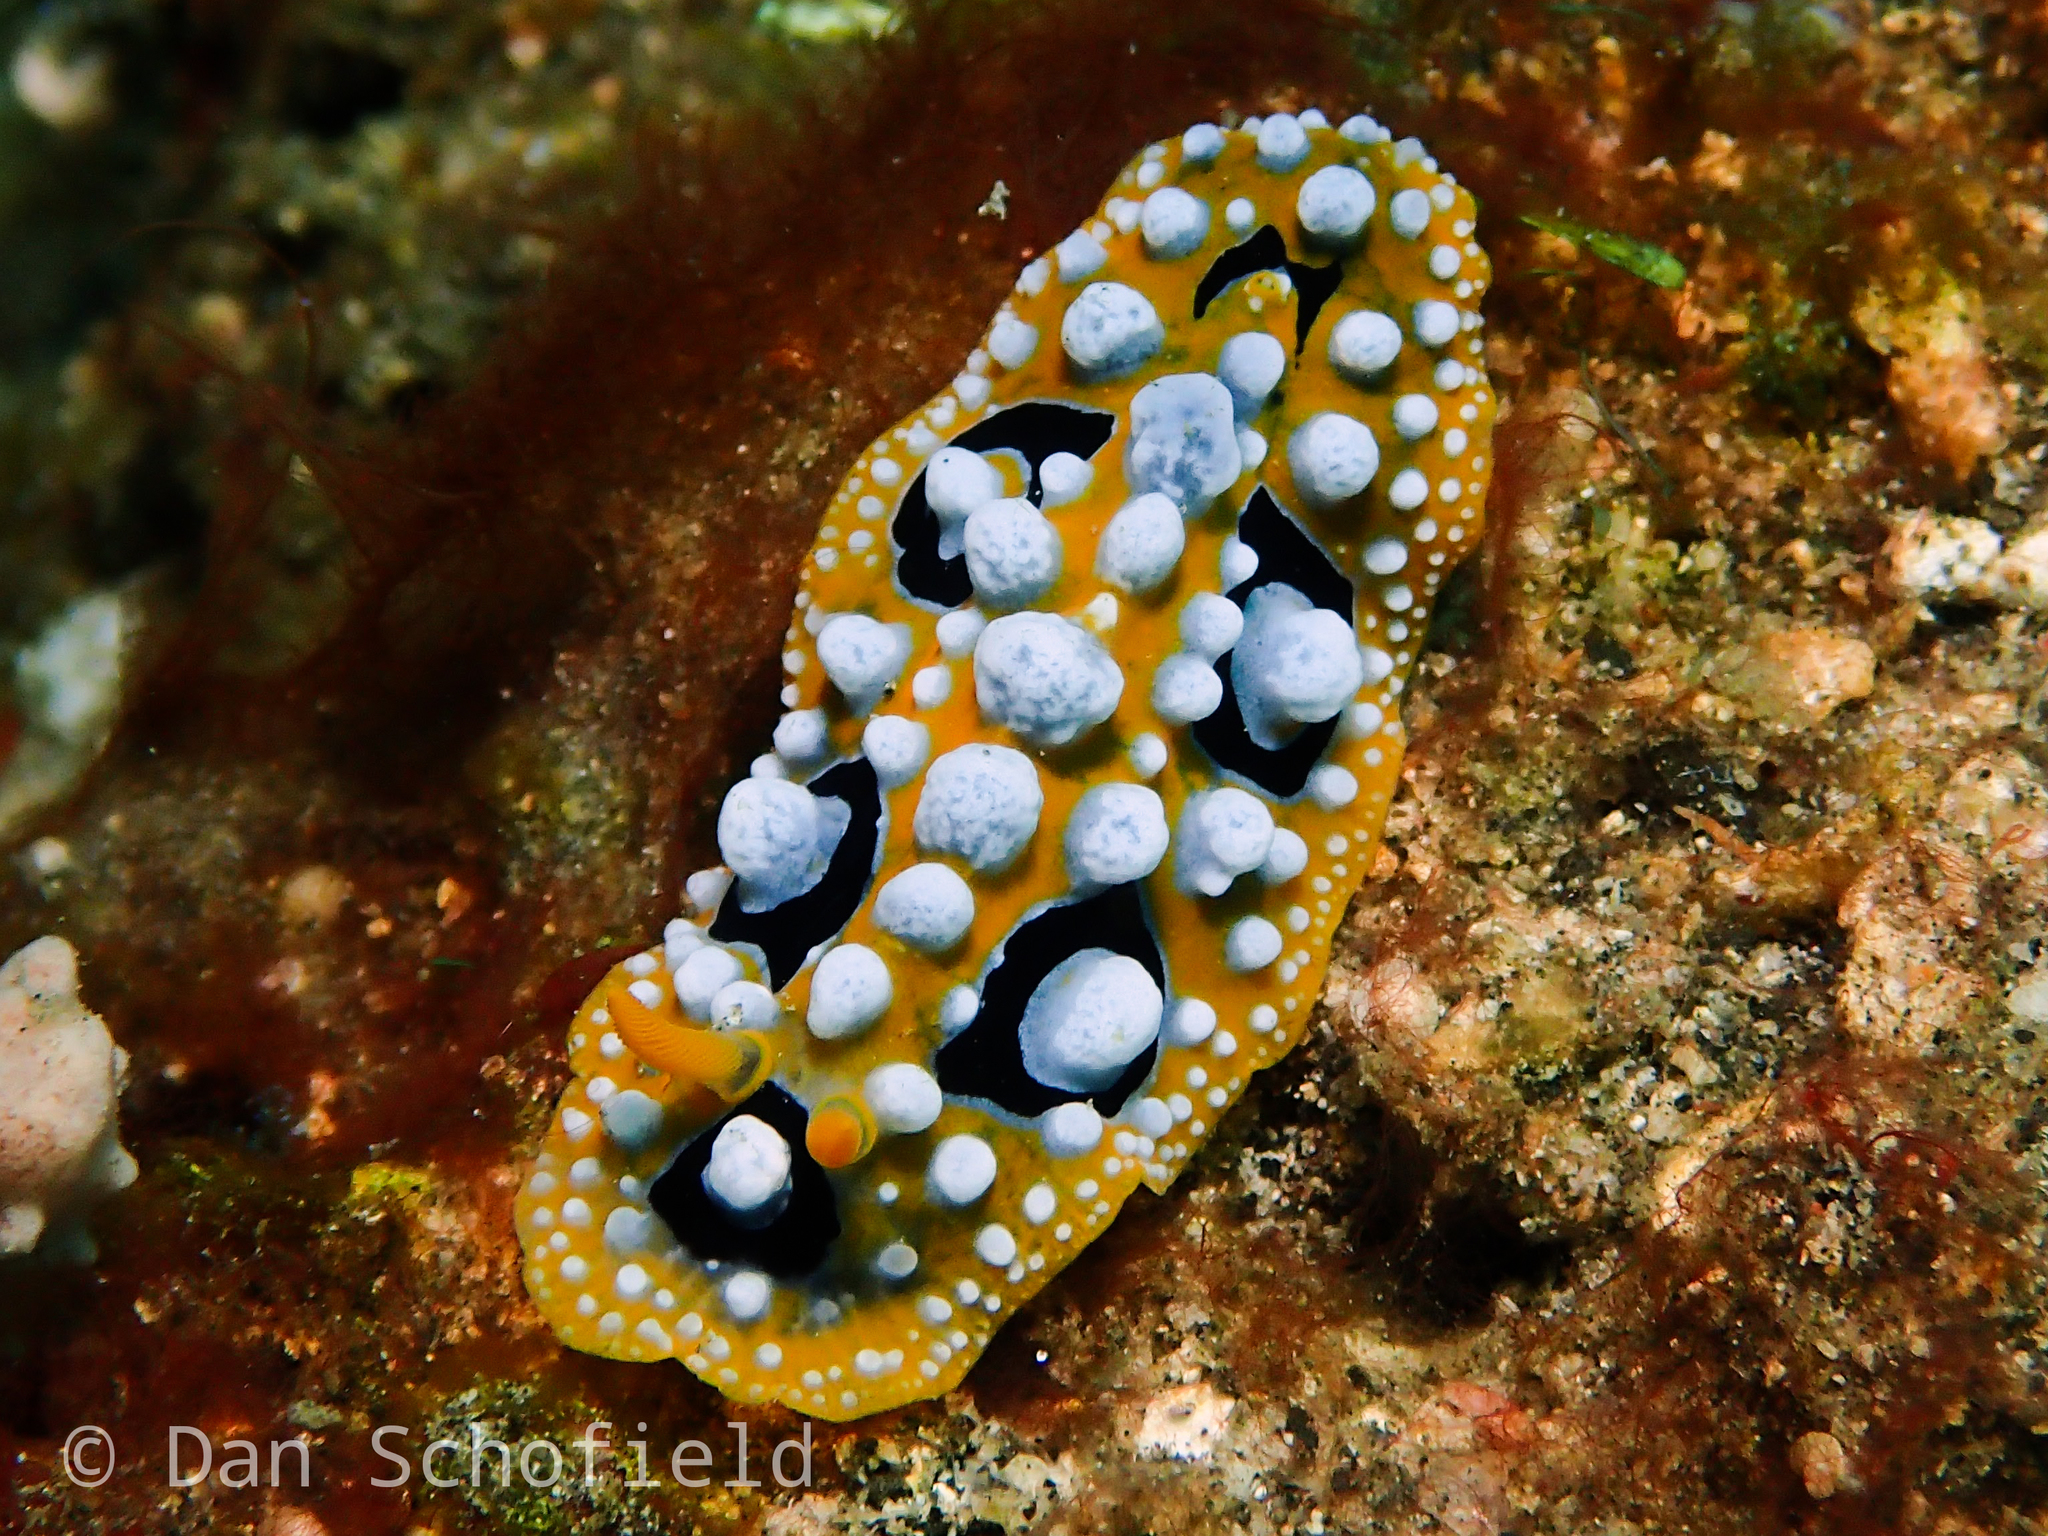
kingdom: Animalia
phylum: Mollusca
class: Gastropoda
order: Nudibranchia
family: Phyllidiidae
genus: Phyllidia
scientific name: Phyllidia ocellata
